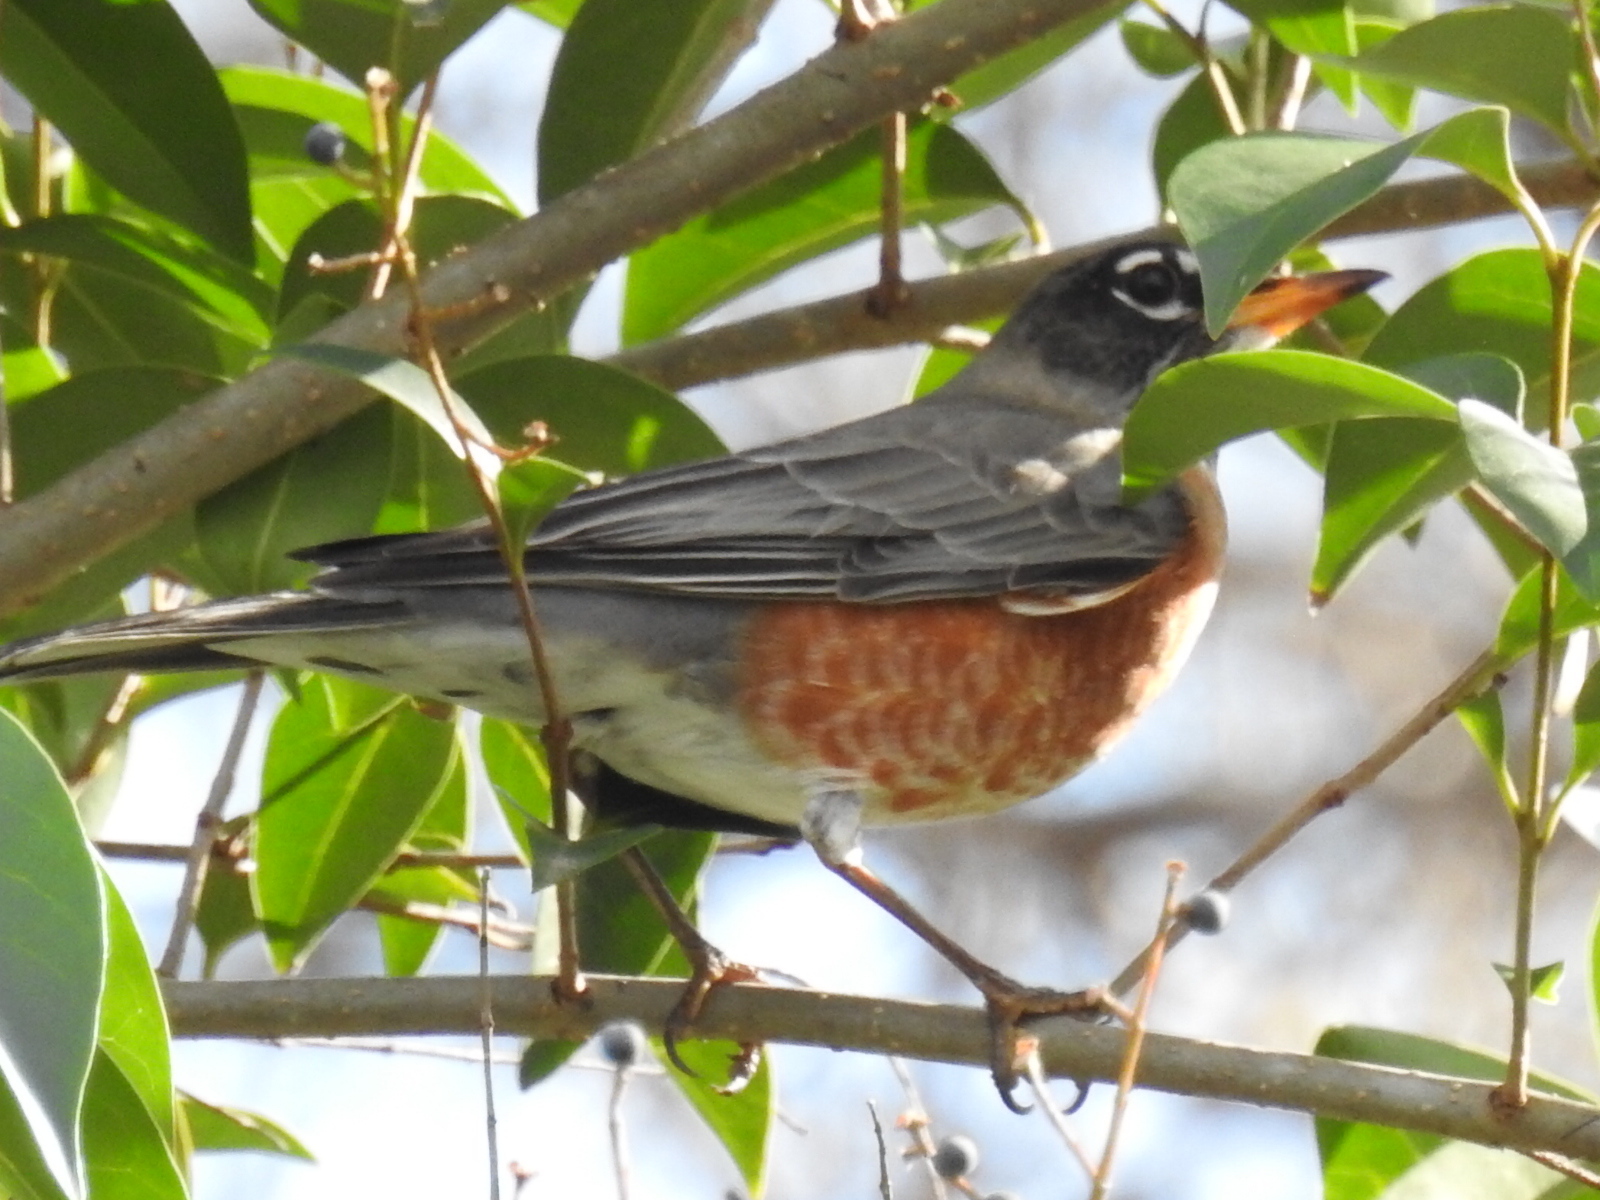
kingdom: Animalia
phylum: Chordata
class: Aves
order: Passeriformes
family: Turdidae
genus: Turdus
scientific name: Turdus migratorius
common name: American robin
